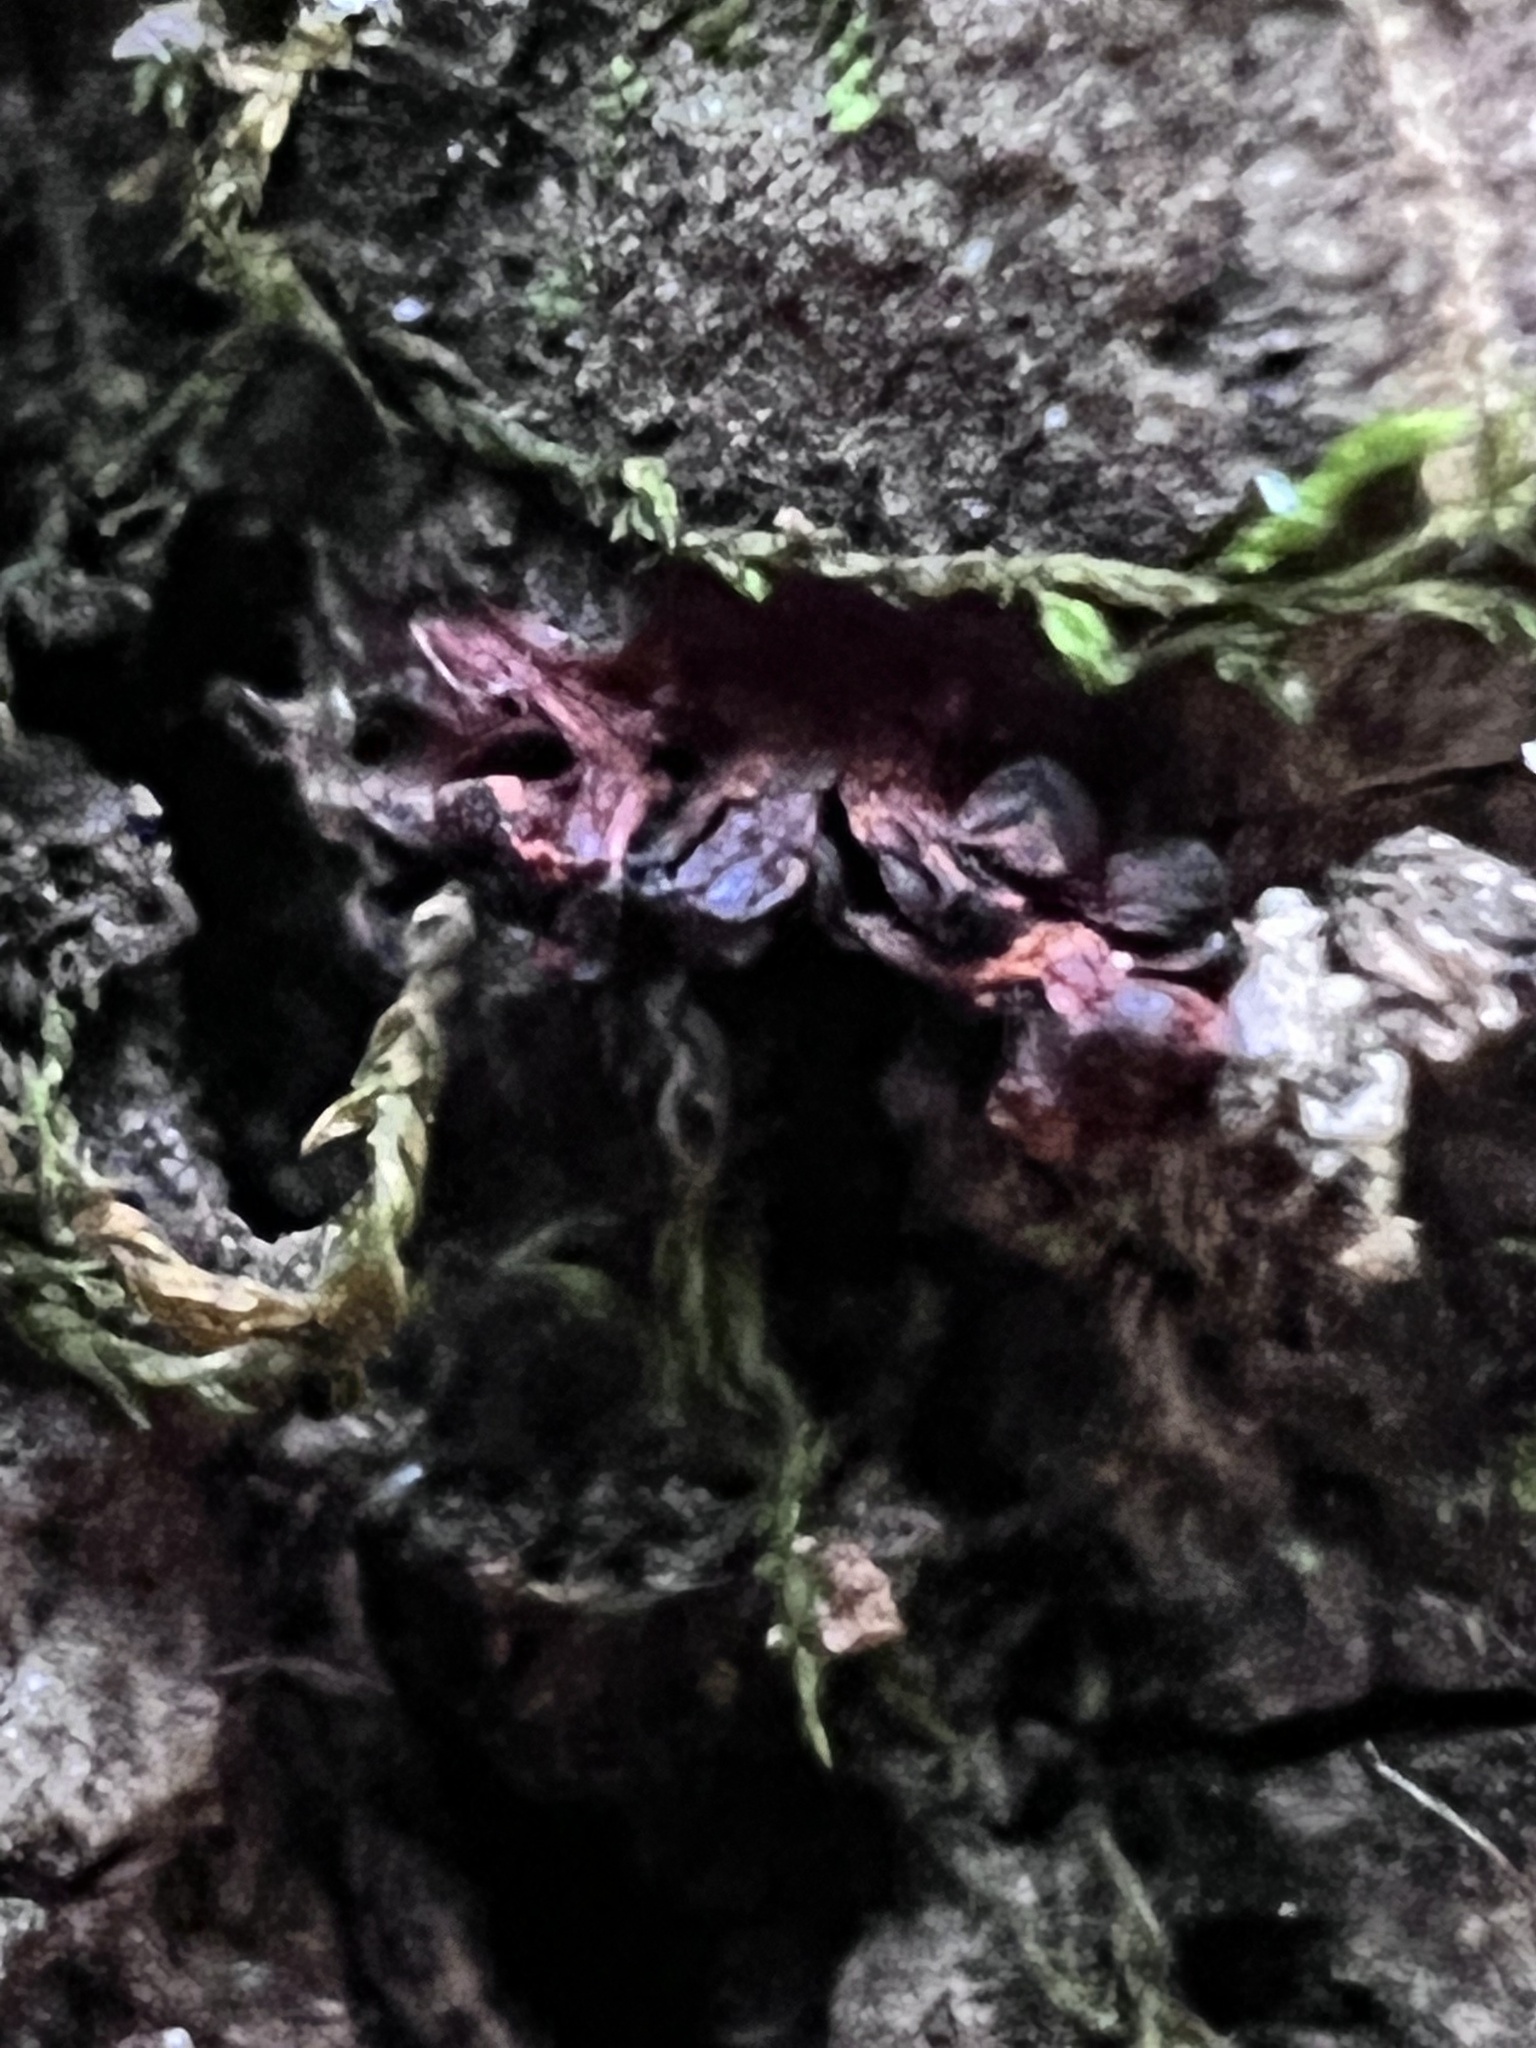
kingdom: Protozoa
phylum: Mycetozoa
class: Myxomycetes
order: Trichiales
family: Trichiaceae
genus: Metatrichia
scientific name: Metatrichia vesparia
